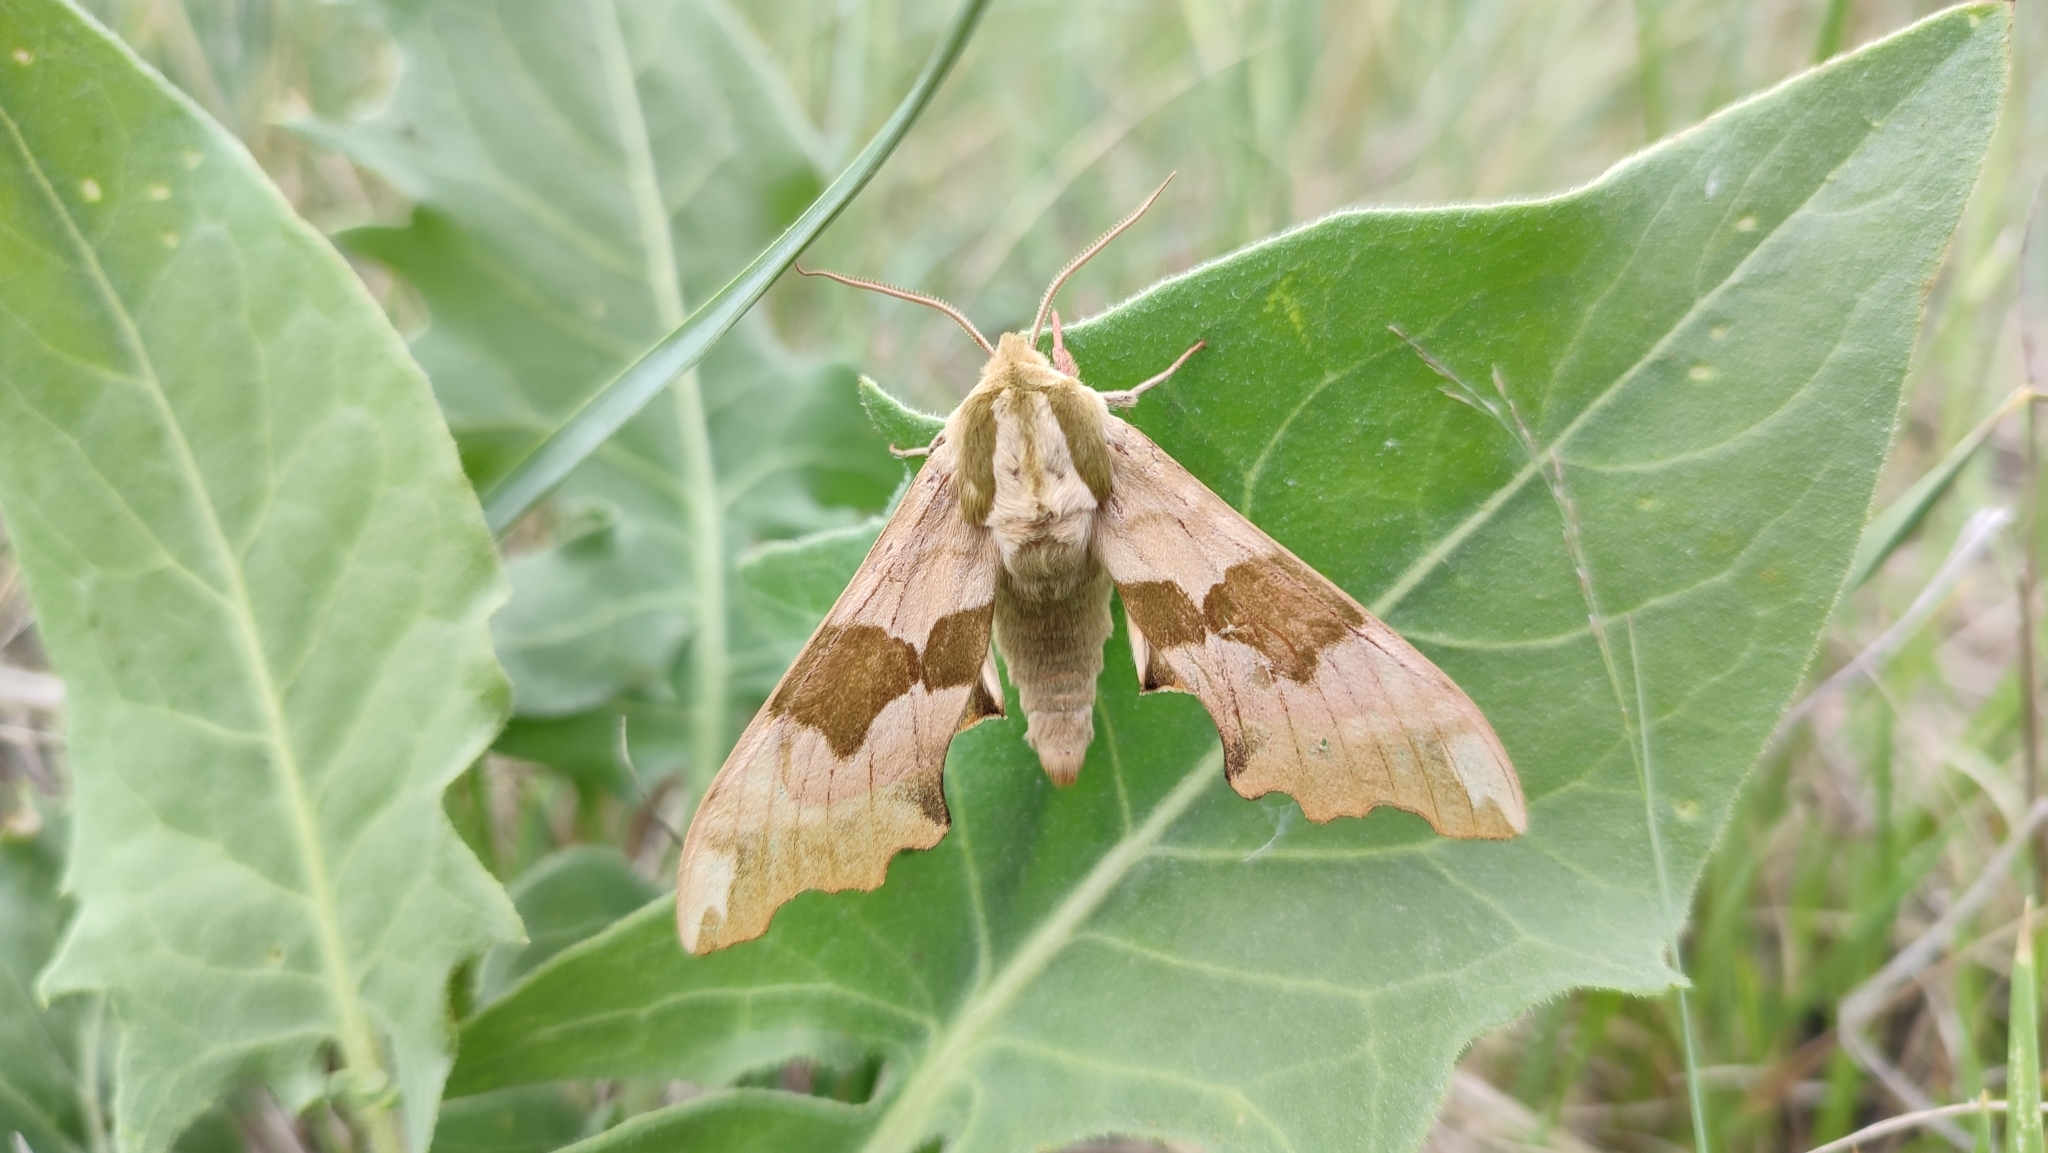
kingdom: Animalia
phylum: Arthropoda
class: Insecta
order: Lepidoptera
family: Sphingidae
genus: Mimas
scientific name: Mimas tiliae
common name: Lime hawk-moth
